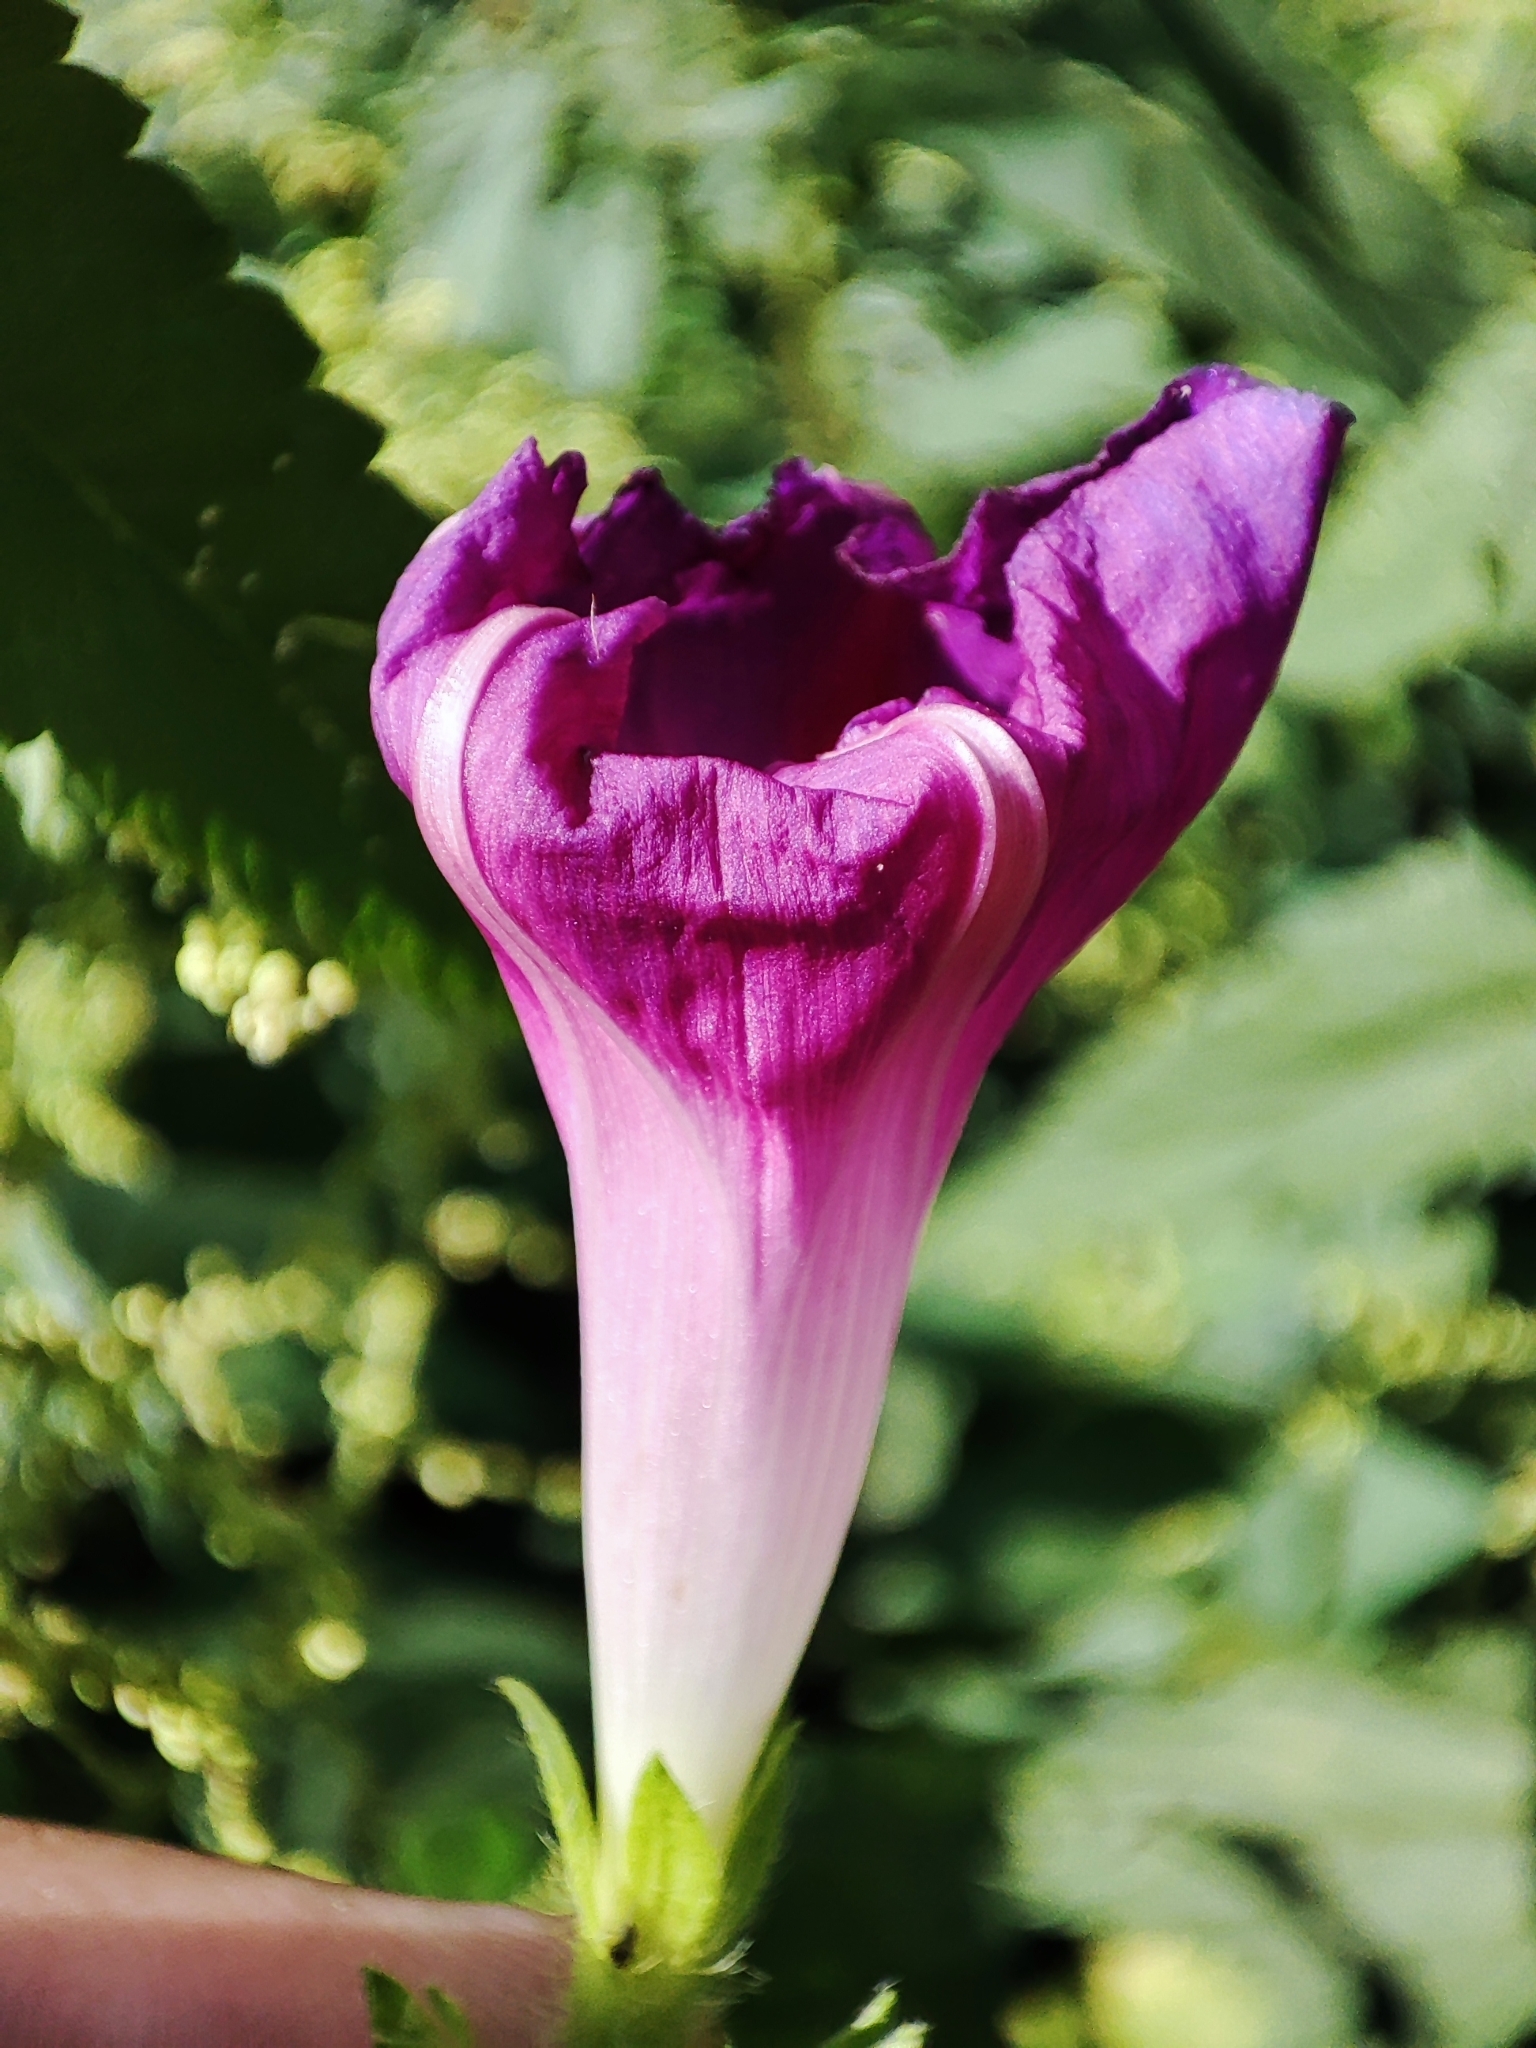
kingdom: Plantae
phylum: Tracheophyta
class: Magnoliopsida
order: Solanales
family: Convolvulaceae
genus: Ipomoea
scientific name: Ipomoea purpurea
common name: Common morning-glory
